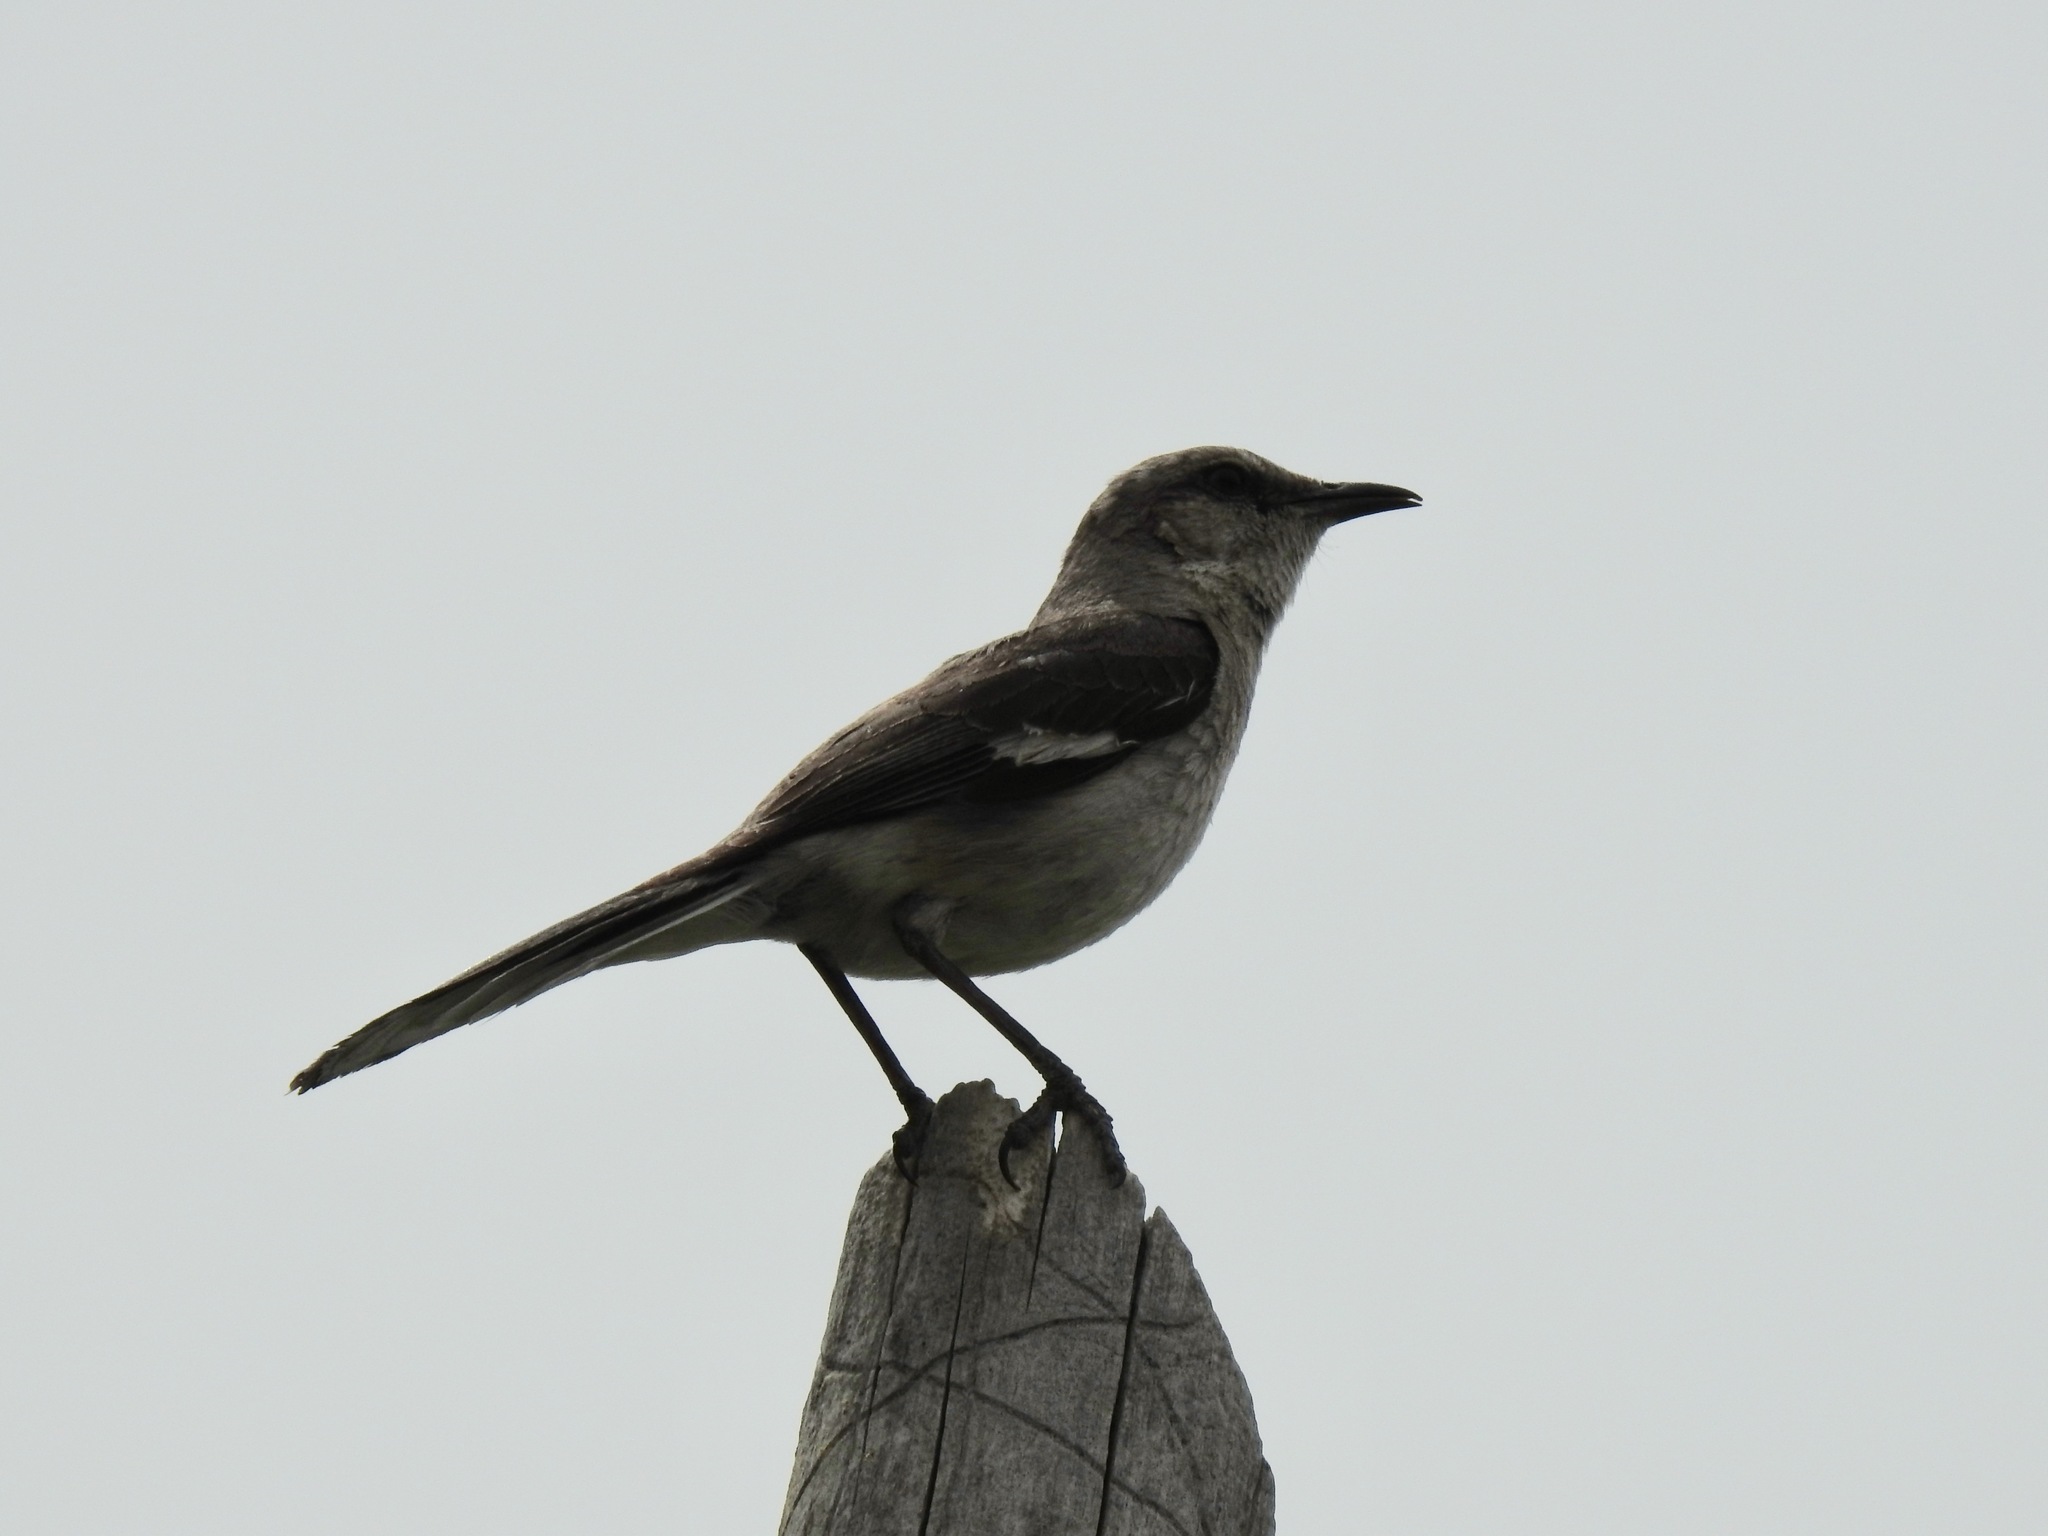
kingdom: Animalia
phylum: Chordata
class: Aves
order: Passeriformes
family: Mimidae
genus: Mimus
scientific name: Mimus polyglottos
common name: Northern mockingbird
